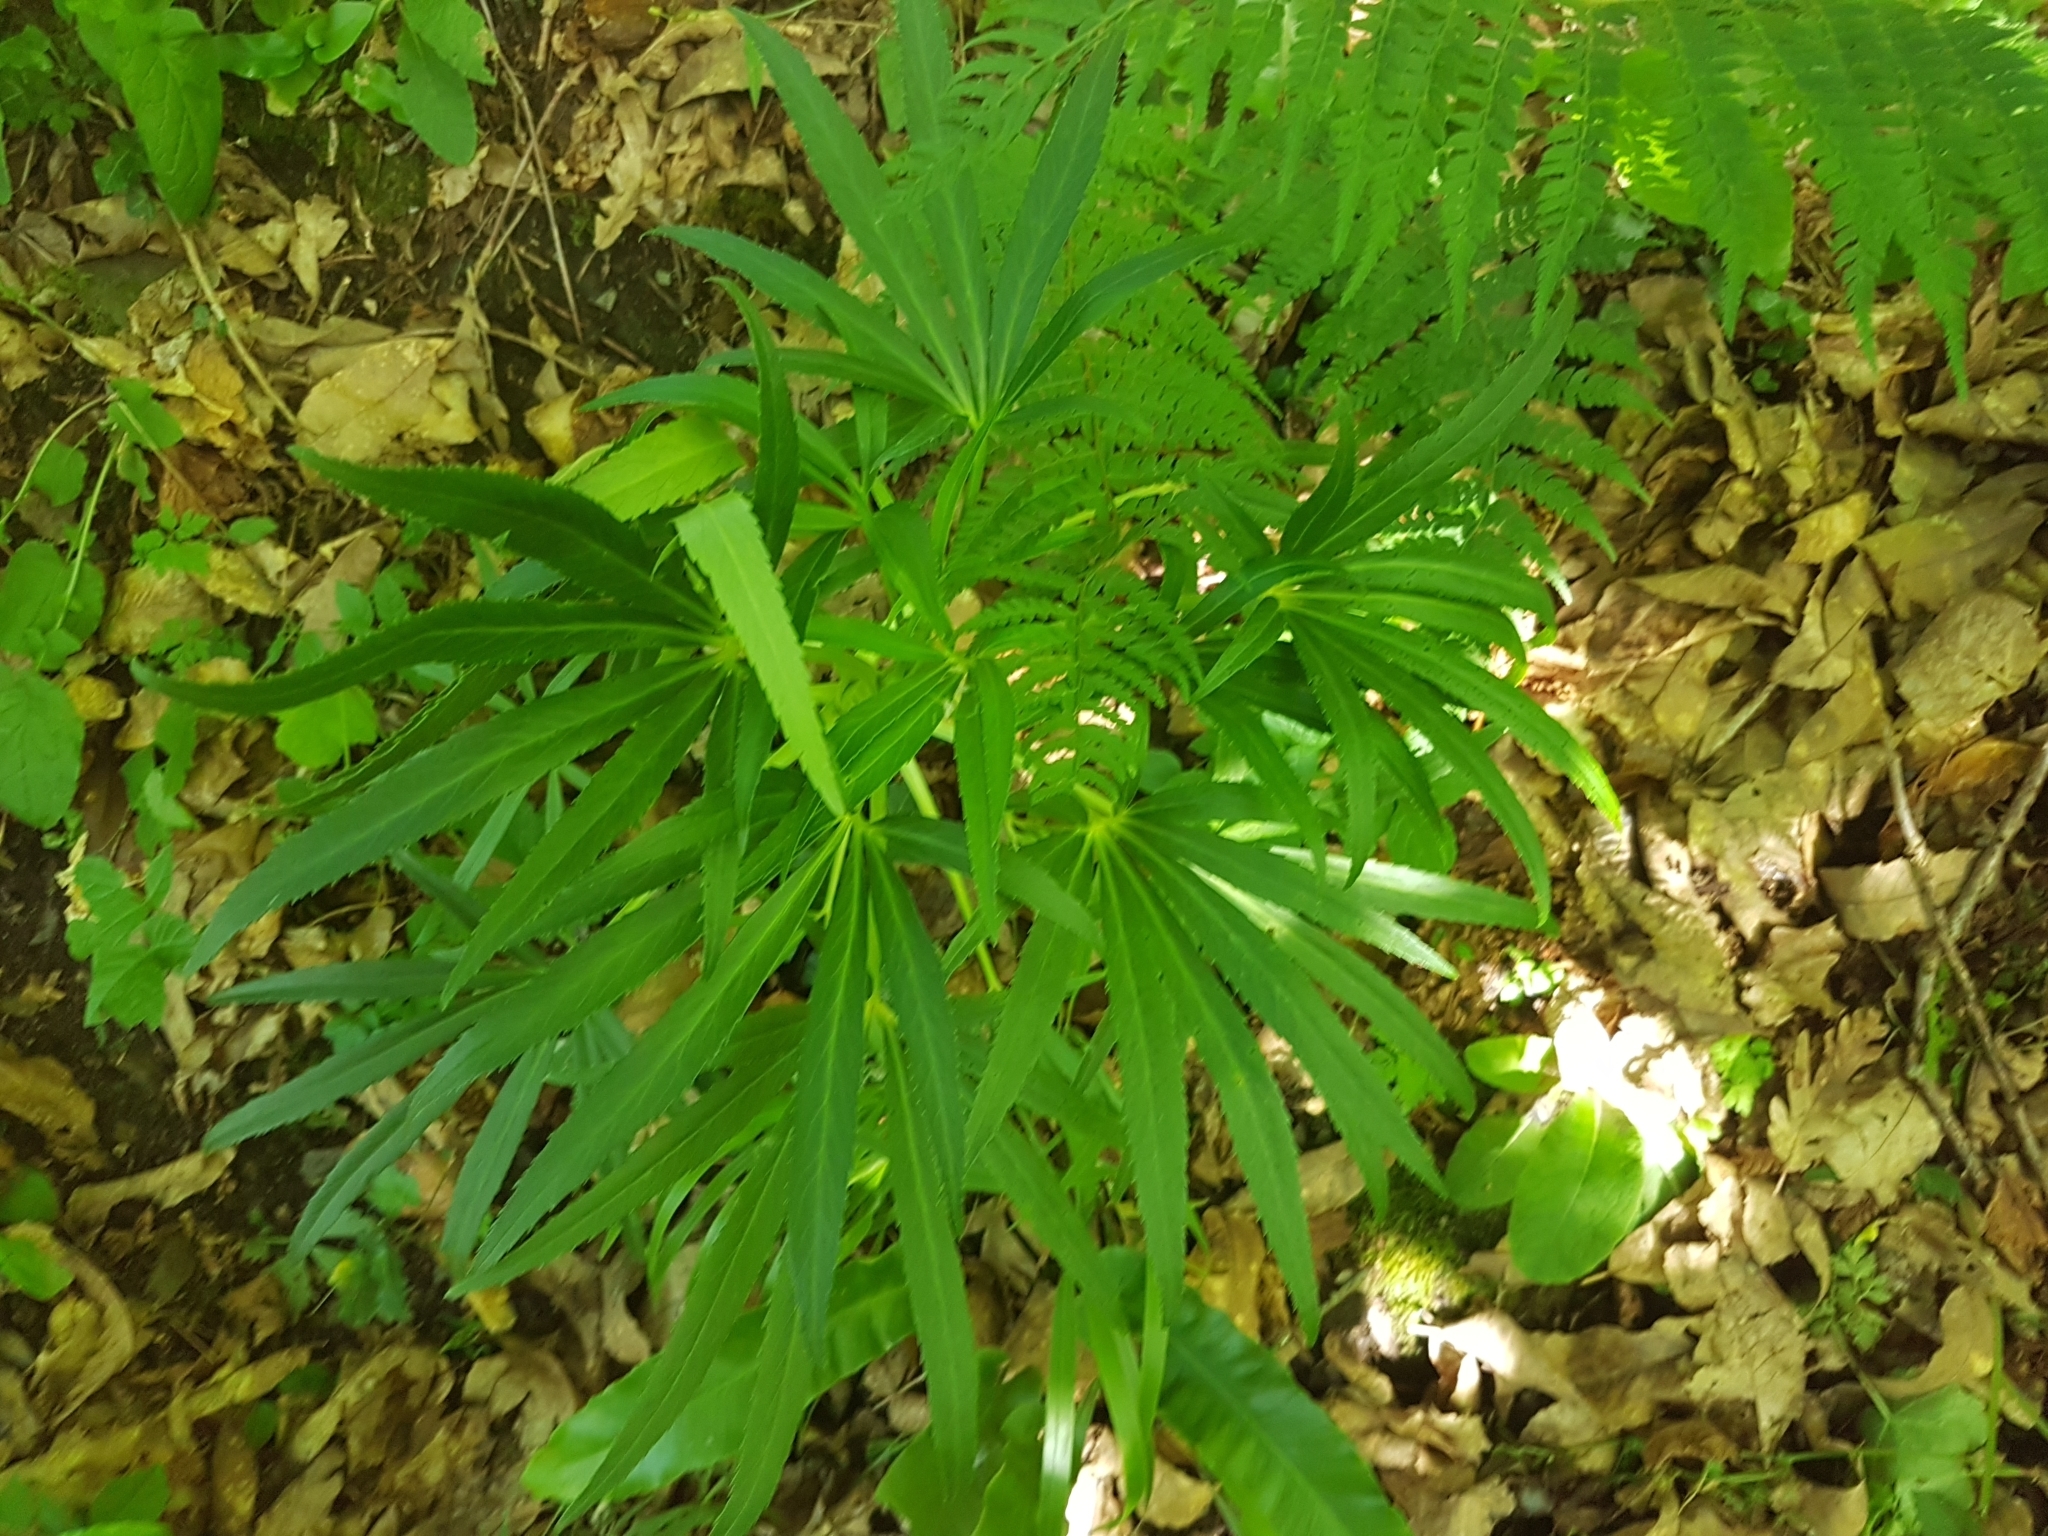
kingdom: Plantae
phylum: Tracheophyta
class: Magnoliopsida
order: Ranunculales
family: Ranunculaceae
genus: Helleborus
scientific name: Helleborus foetidus
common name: Stinking hellebore
